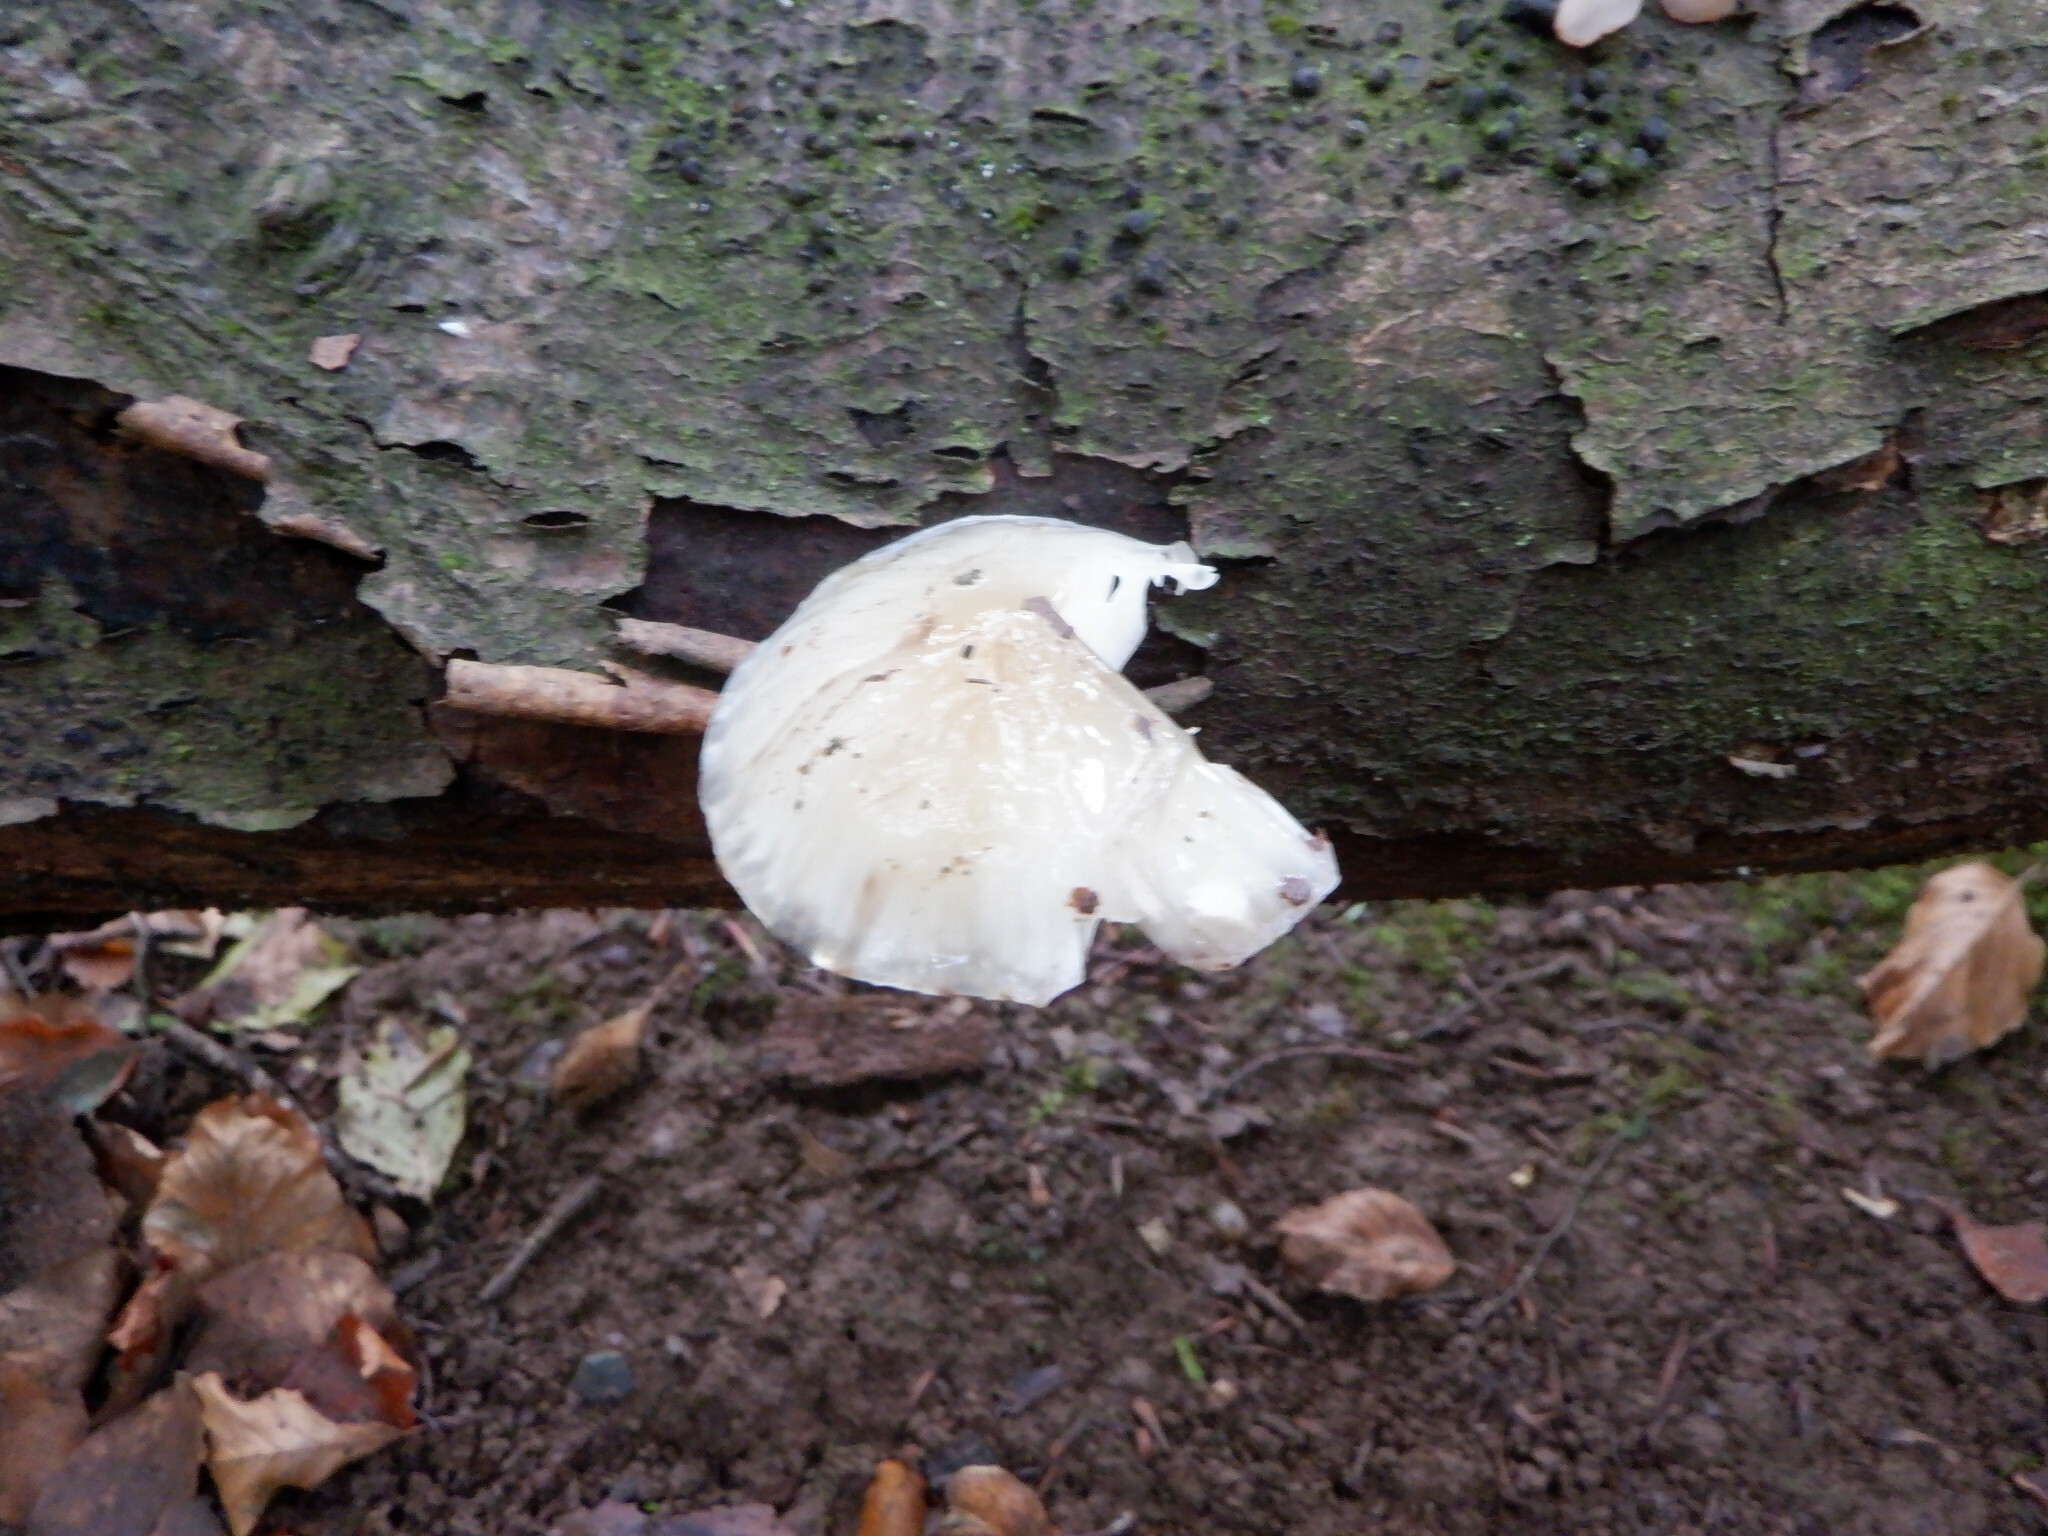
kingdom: Fungi
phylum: Basidiomycota
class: Agaricomycetes
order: Agaricales
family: Physalacriaceae
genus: Mucidula
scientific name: Mucidula mucida
